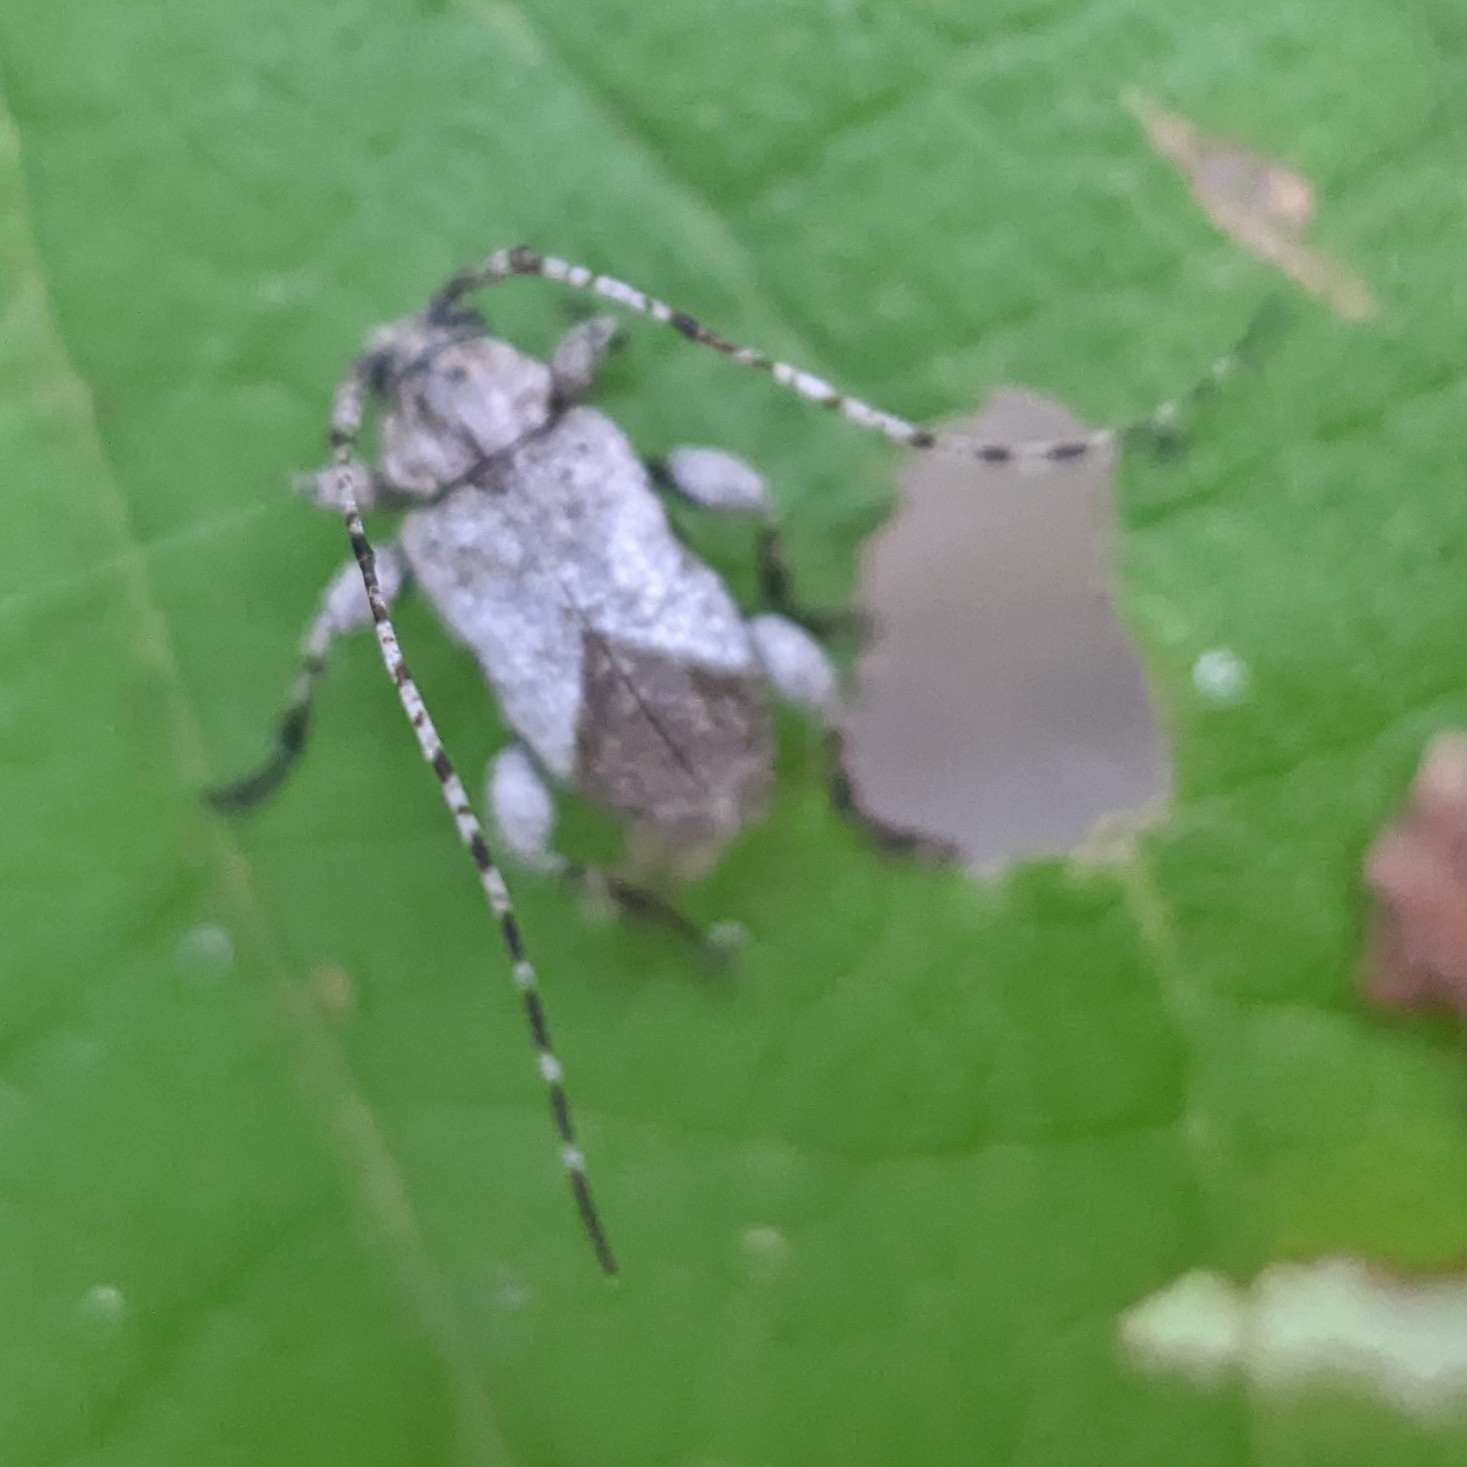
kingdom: Animalia
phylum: Arthropoda
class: Insecta
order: Coleoptera
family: Cerambycidae
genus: Styloleptus
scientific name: Styloleptus biustus
